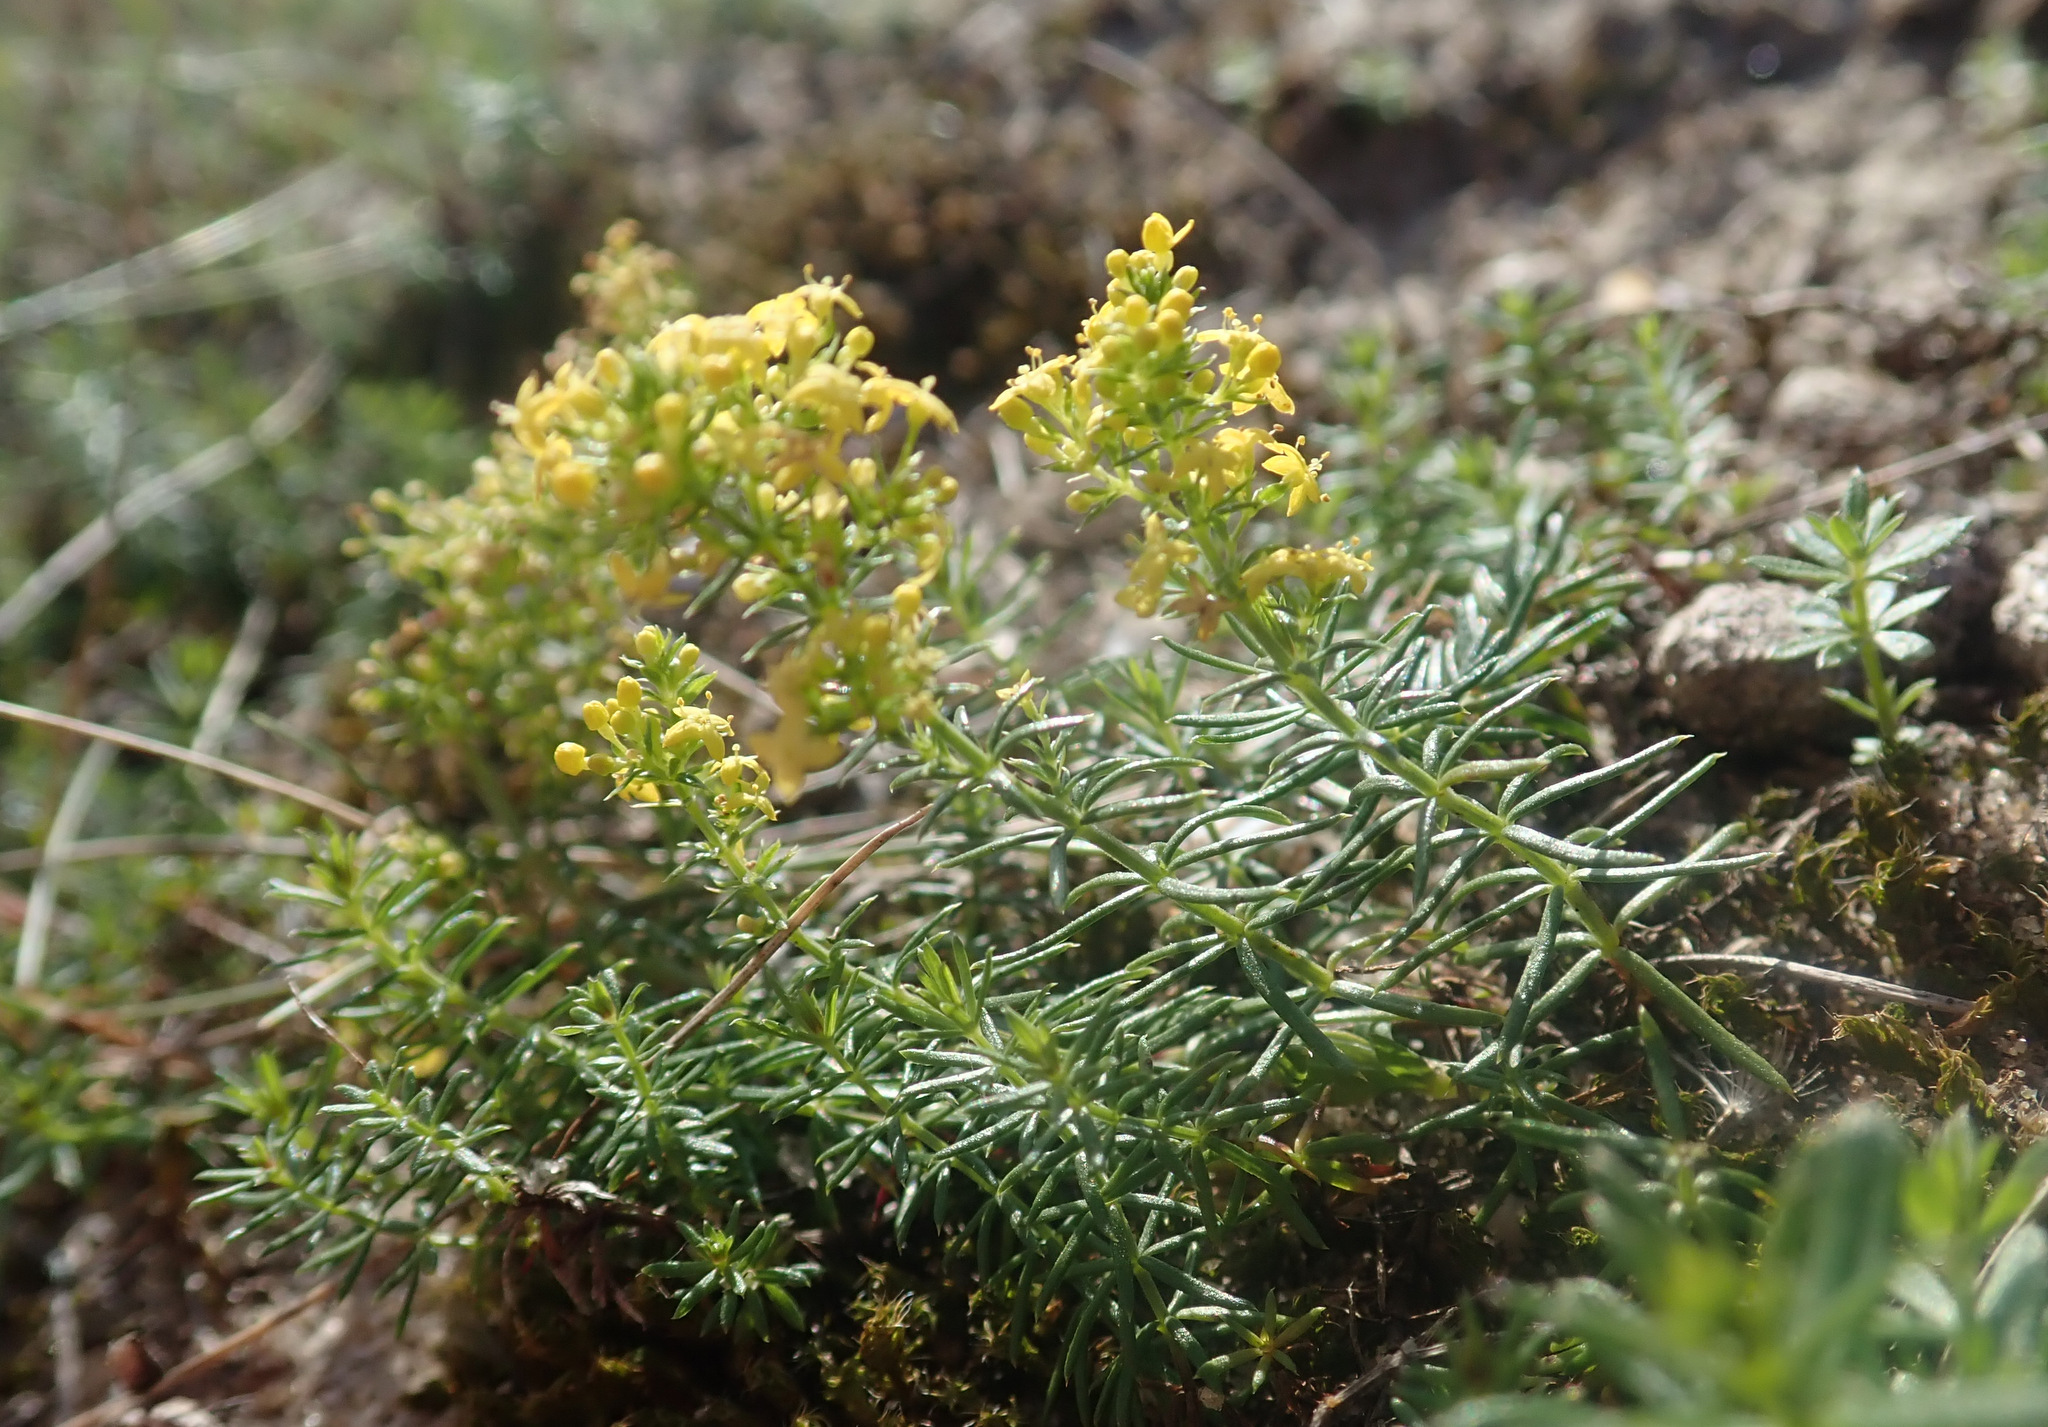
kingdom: Plantae
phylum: Tracheophyta
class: Magnoliopsida
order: Gentianales
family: Rubiaceae
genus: Galium
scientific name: Galium verum
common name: Lady's bedstraw
